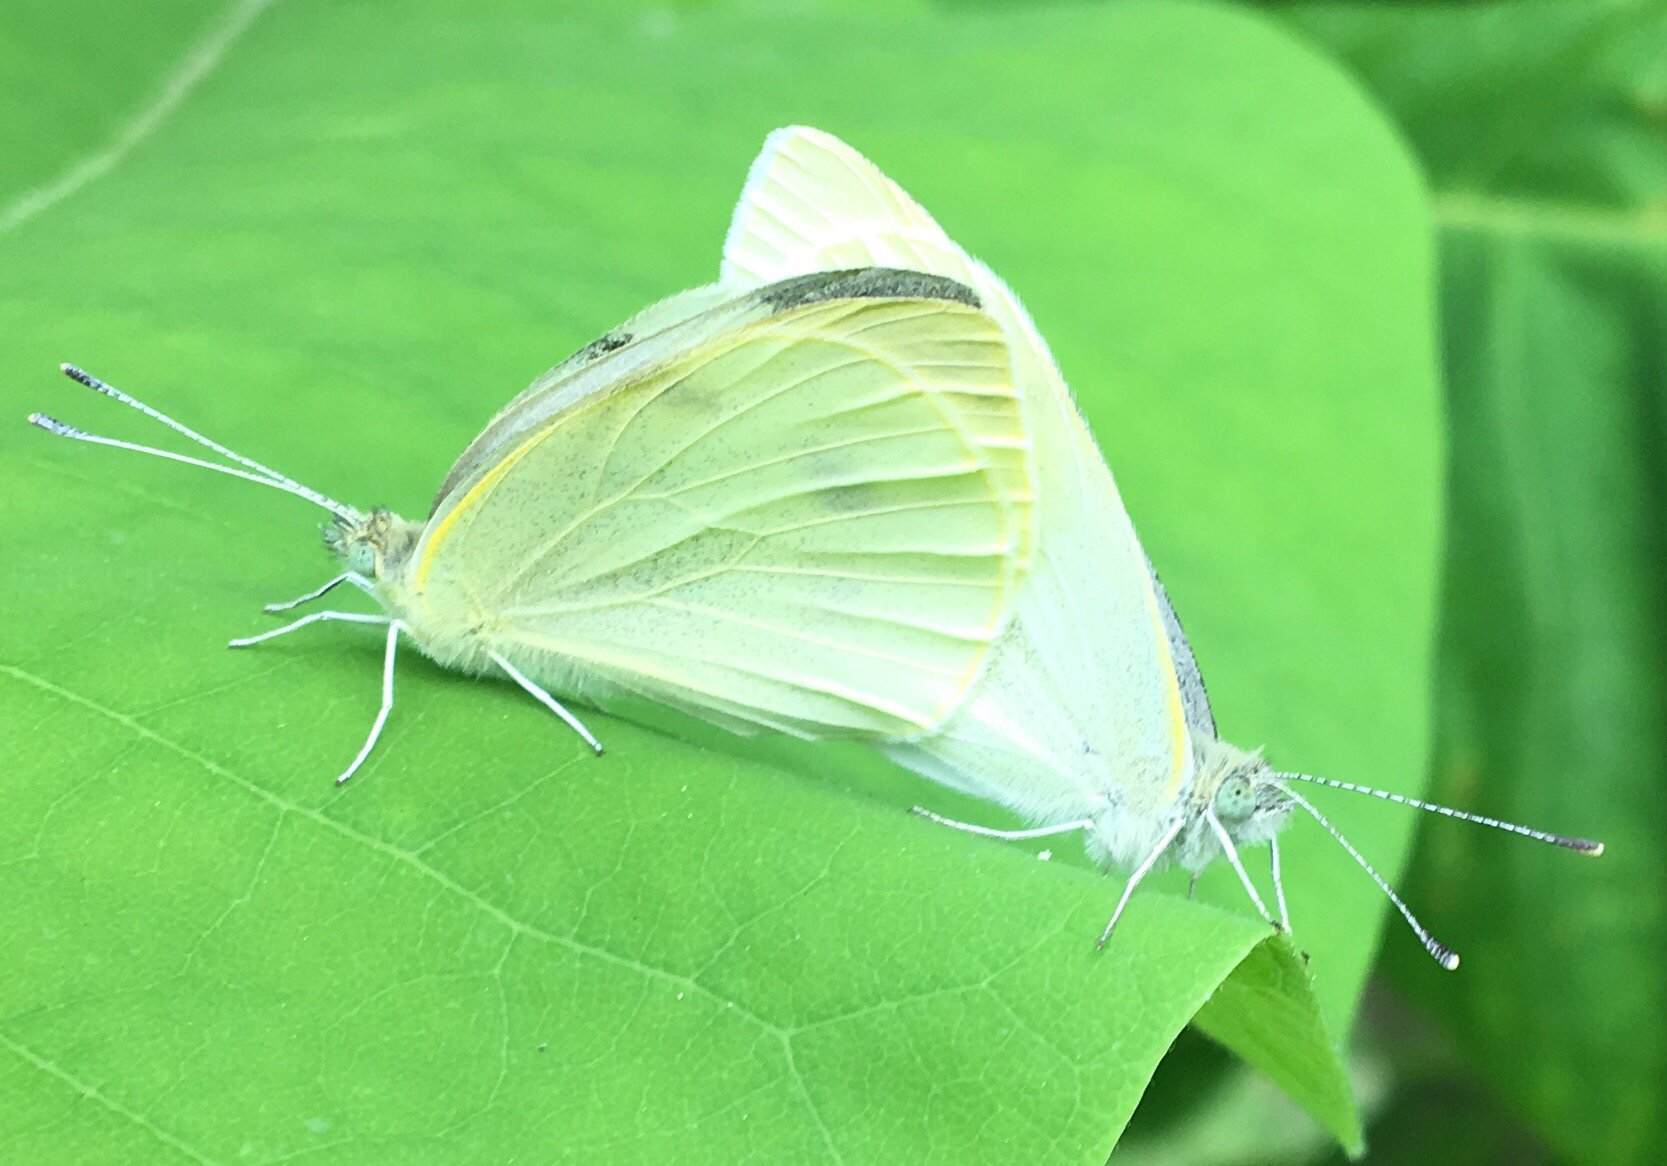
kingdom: Animalia
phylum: Arthropoda
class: Insecta
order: Lepidoptera
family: Pieridae
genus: Pieris
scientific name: Pieris rapae
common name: Small white
